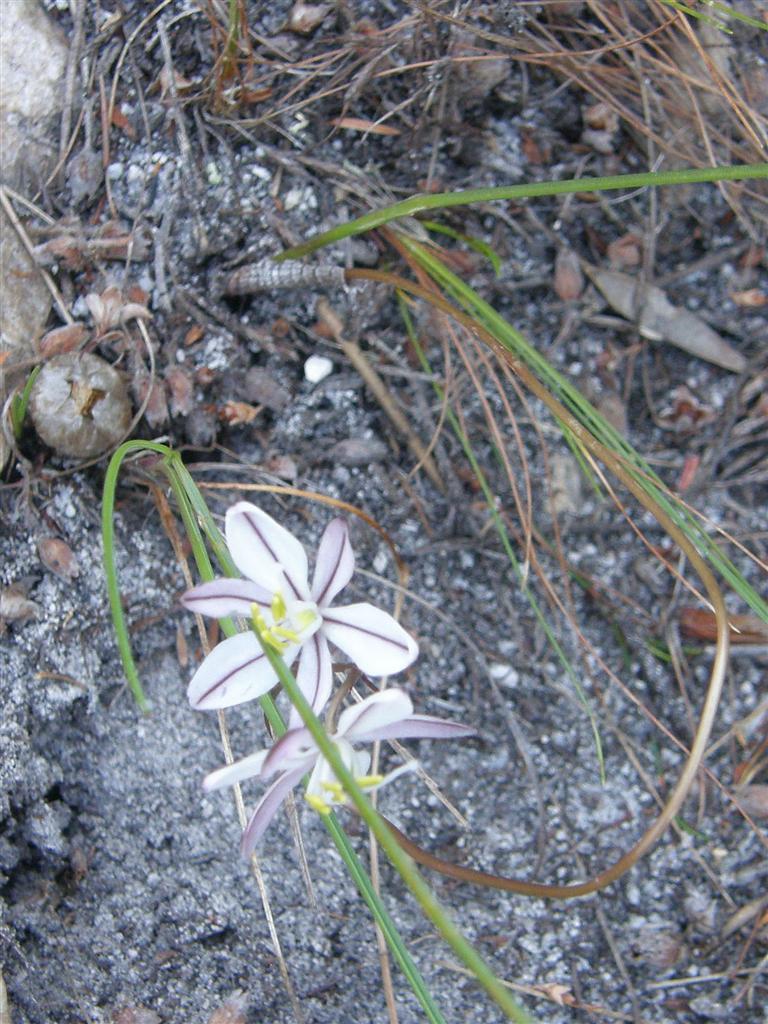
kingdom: Plantae
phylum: Tracheophyta
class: Liliopsida
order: Asparagales
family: Asparagaceae
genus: Drimia
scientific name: Drimia exuviata
